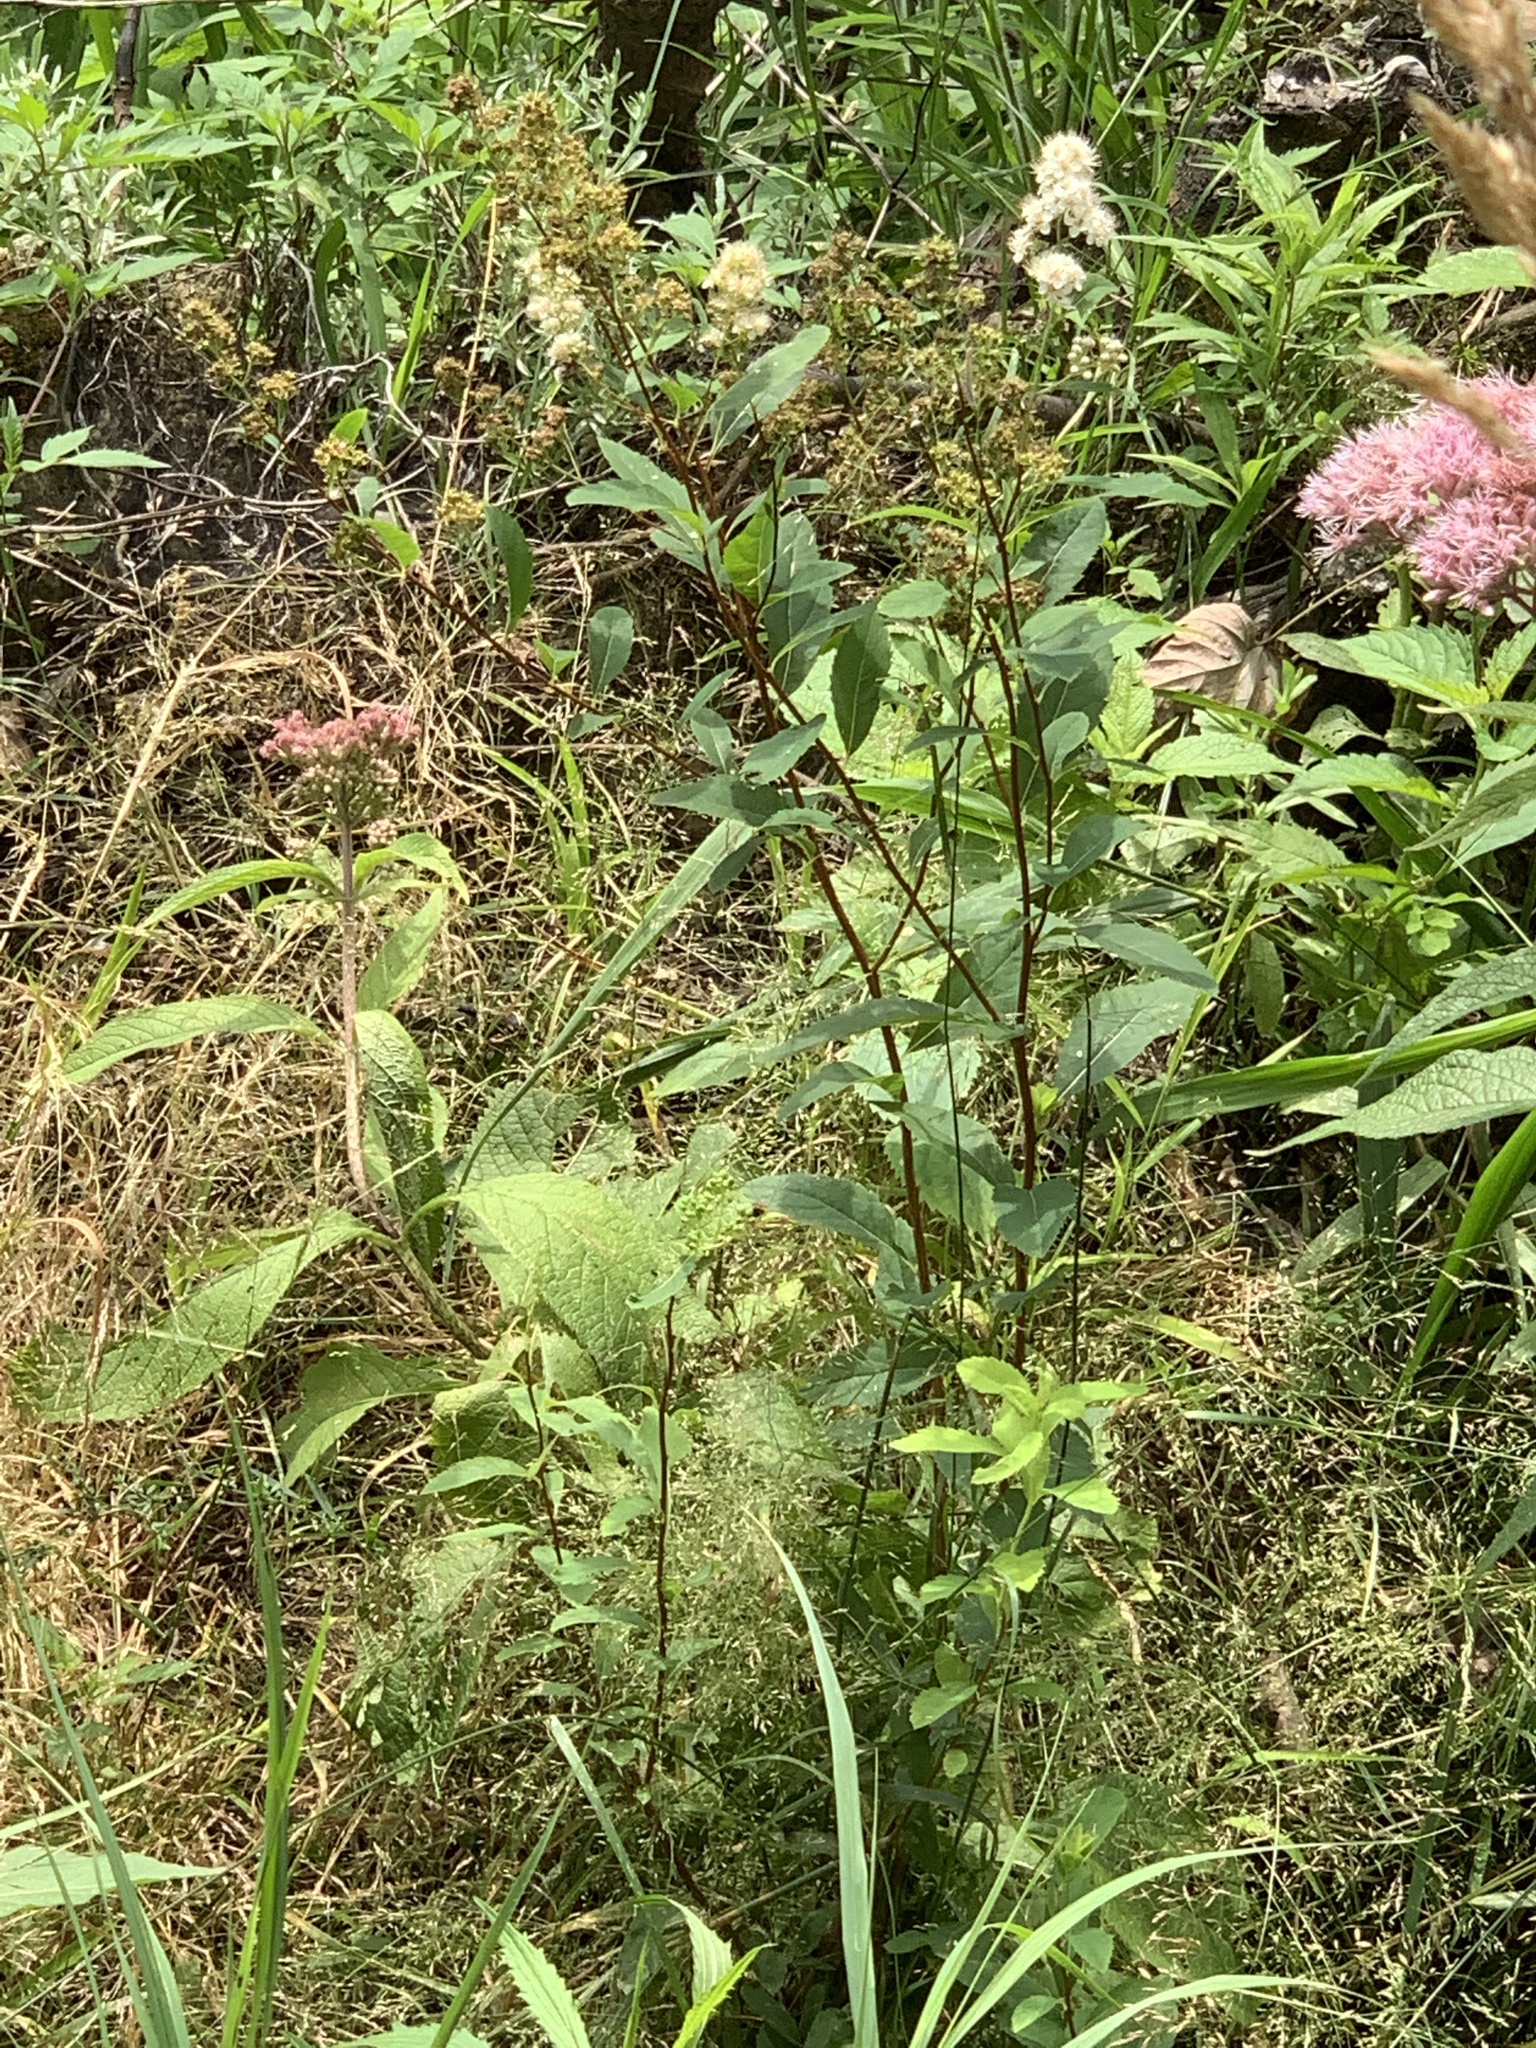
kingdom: Plantae
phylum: Tracheophyta
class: Magnoliopsida
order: Rosales
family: Rosaceae
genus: Spiraea
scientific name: Spiraea alba
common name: Pale bridewort
